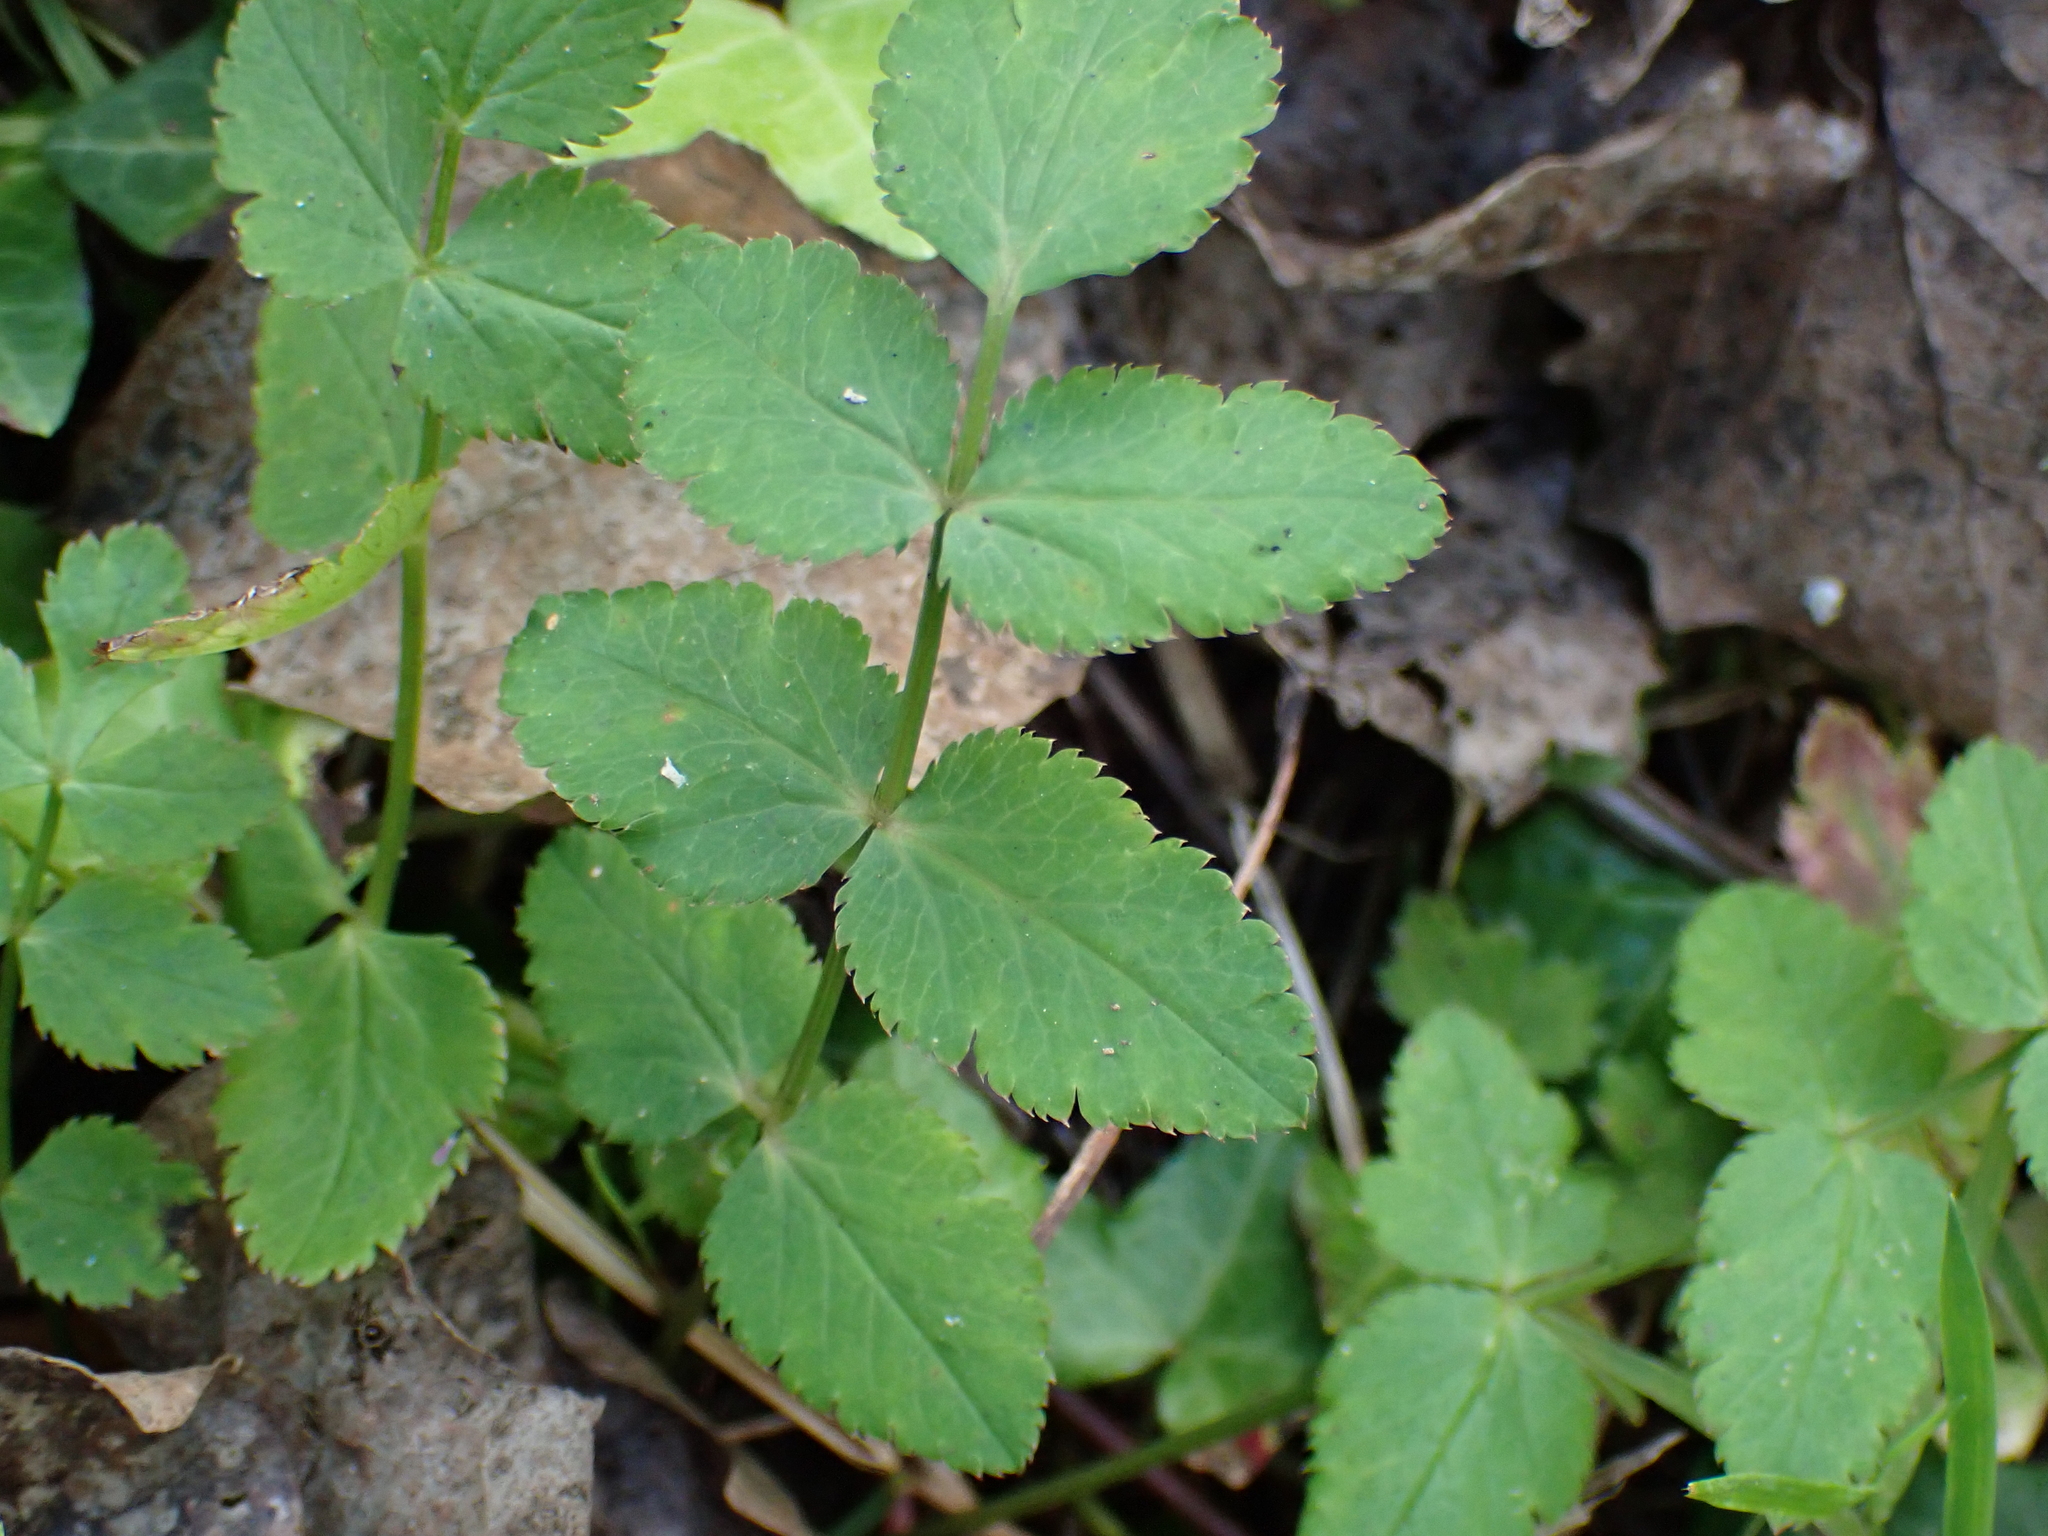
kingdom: Plantae
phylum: Tracheophyta
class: Magnoliopsida
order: Apiales
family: Apiaceae
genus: Sison
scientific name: Sison amomum
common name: Stone-parsley
